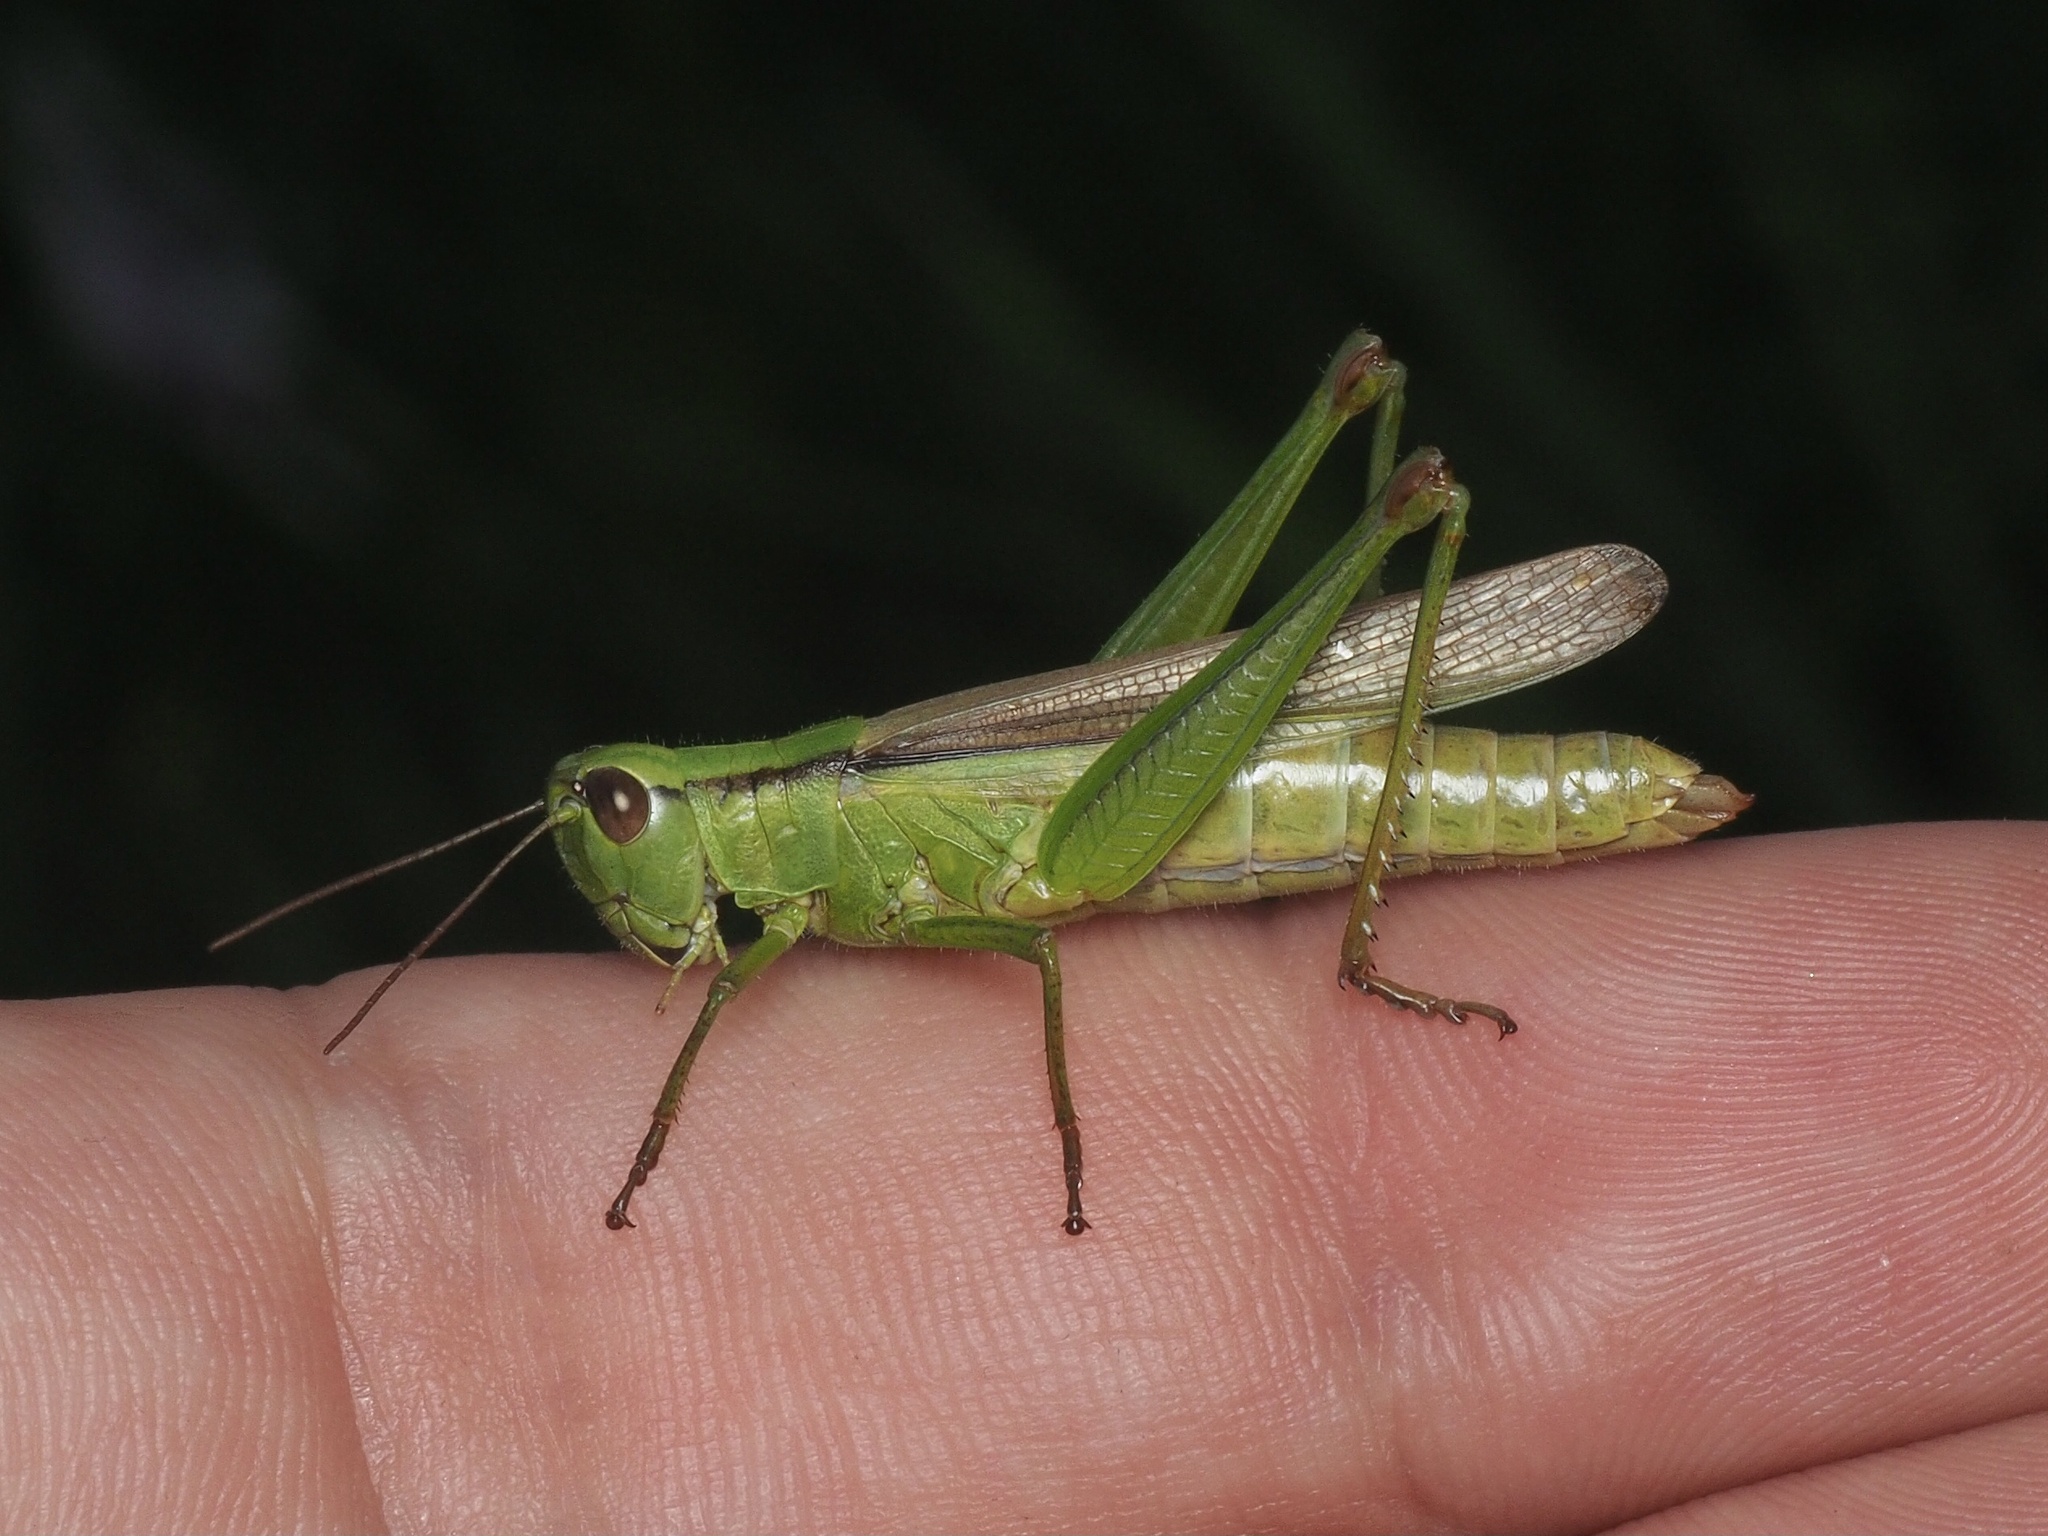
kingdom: Animalia
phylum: Arthropoda
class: Insecta
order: Orthoptera
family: Acrididae
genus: Mecostethus
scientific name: Mecostethus parapleurus
